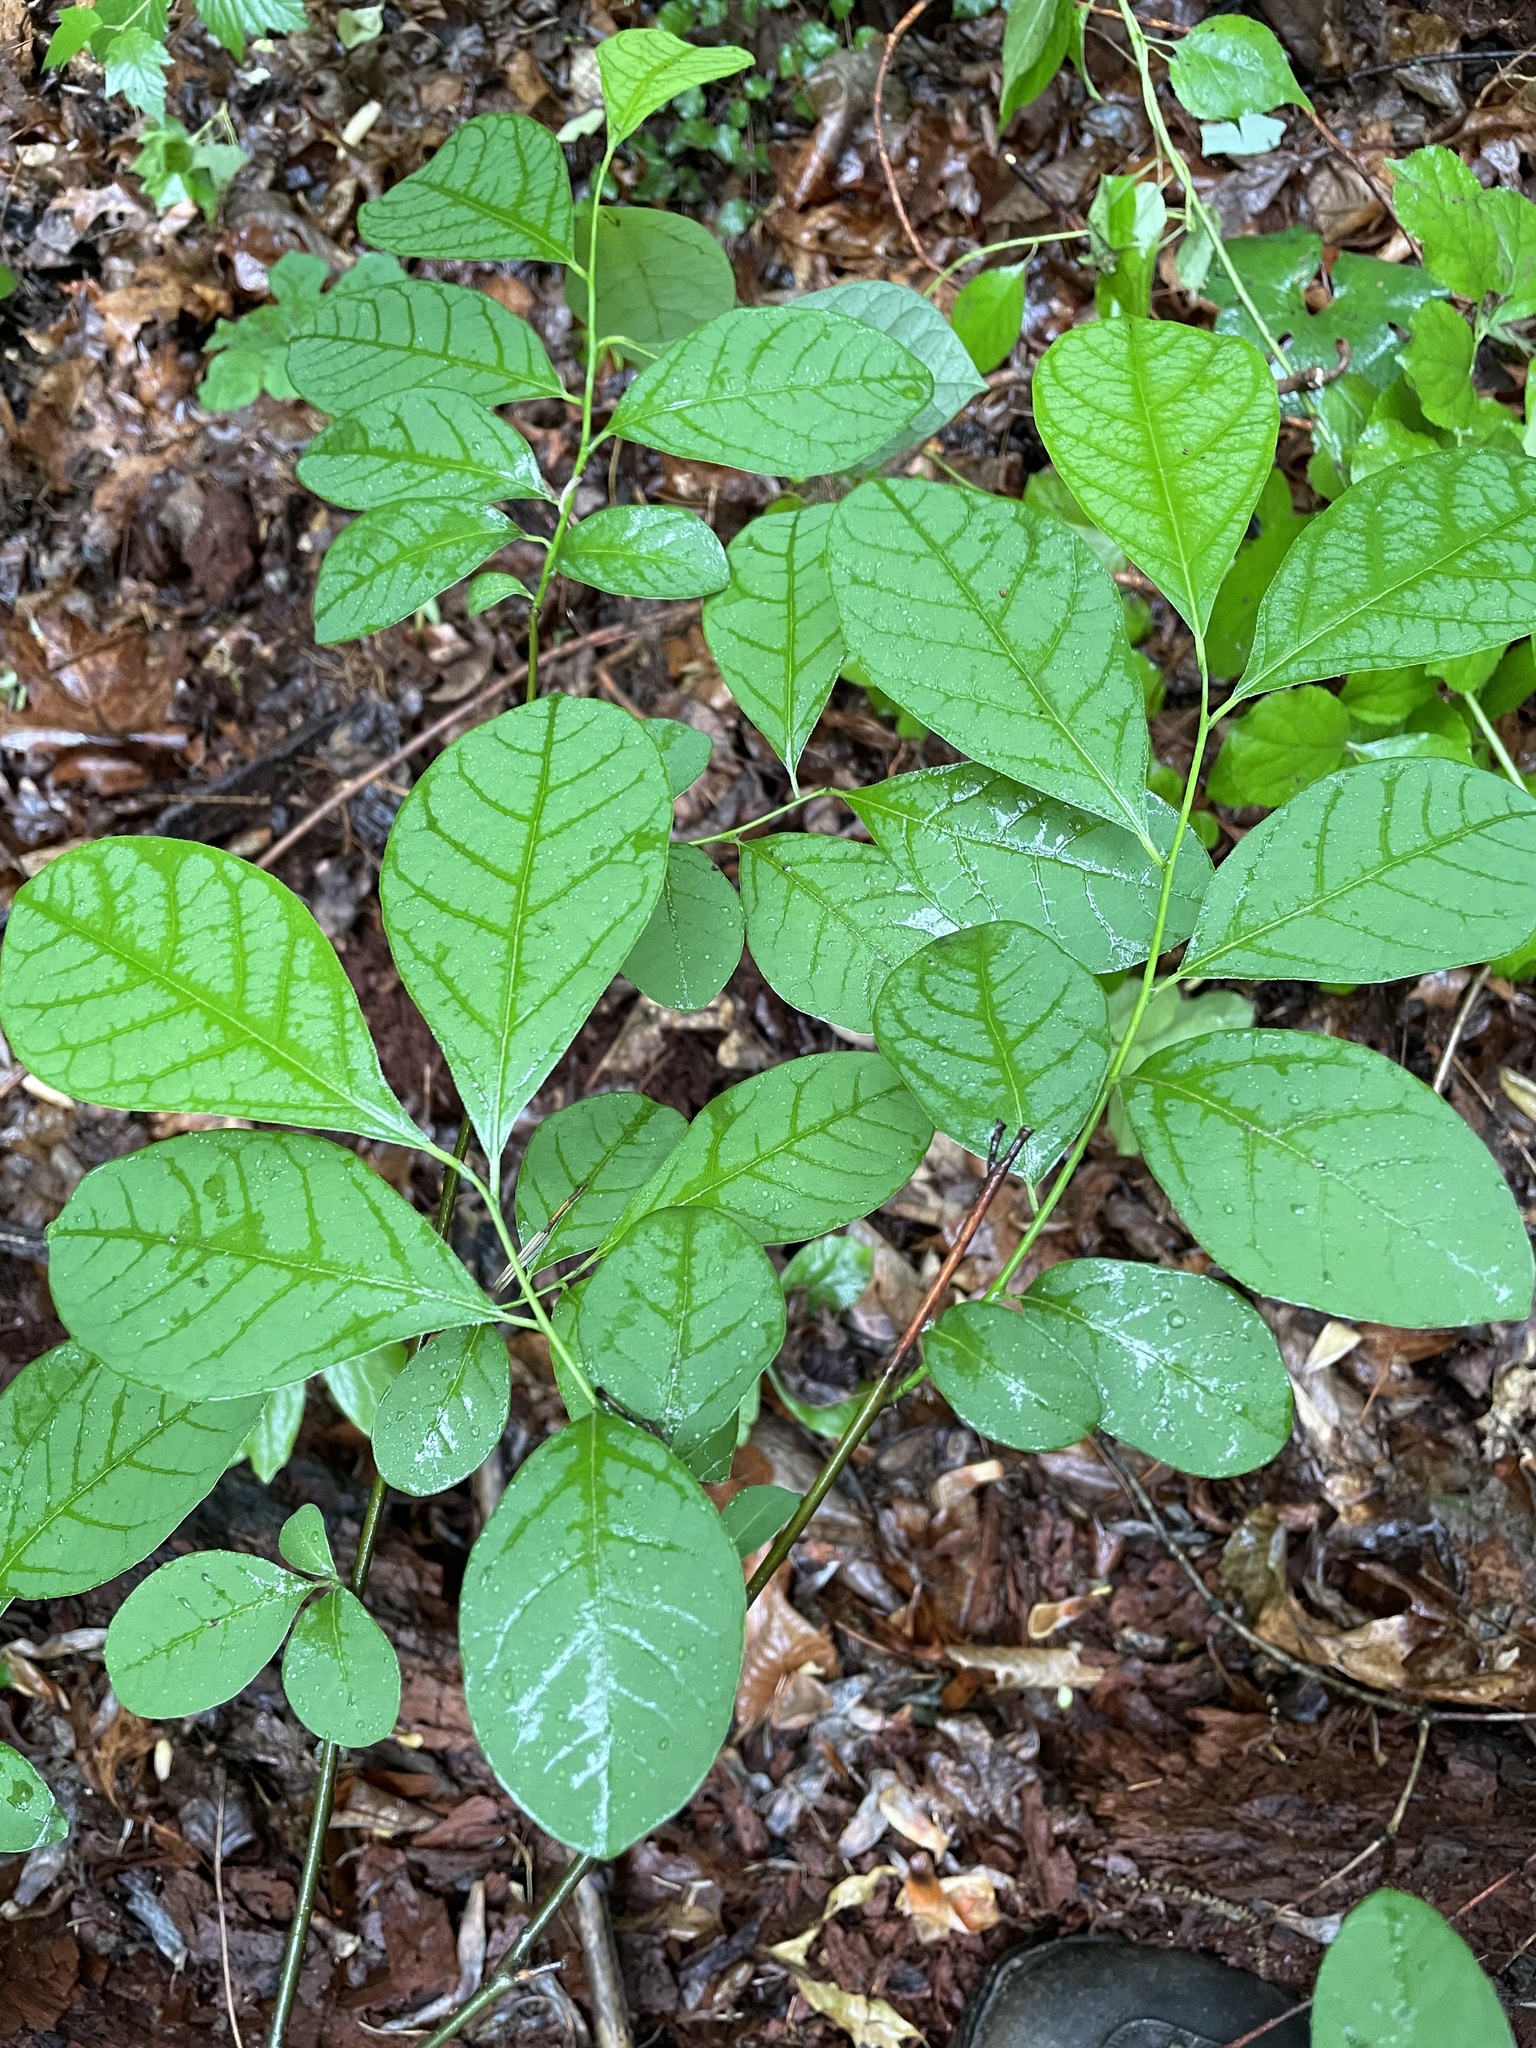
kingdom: Plantae
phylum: Tracheophyta
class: Magnoliopsida
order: Laurales
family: Lauraceae
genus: Lindera
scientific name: Lindera benzoin
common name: Spicebush
